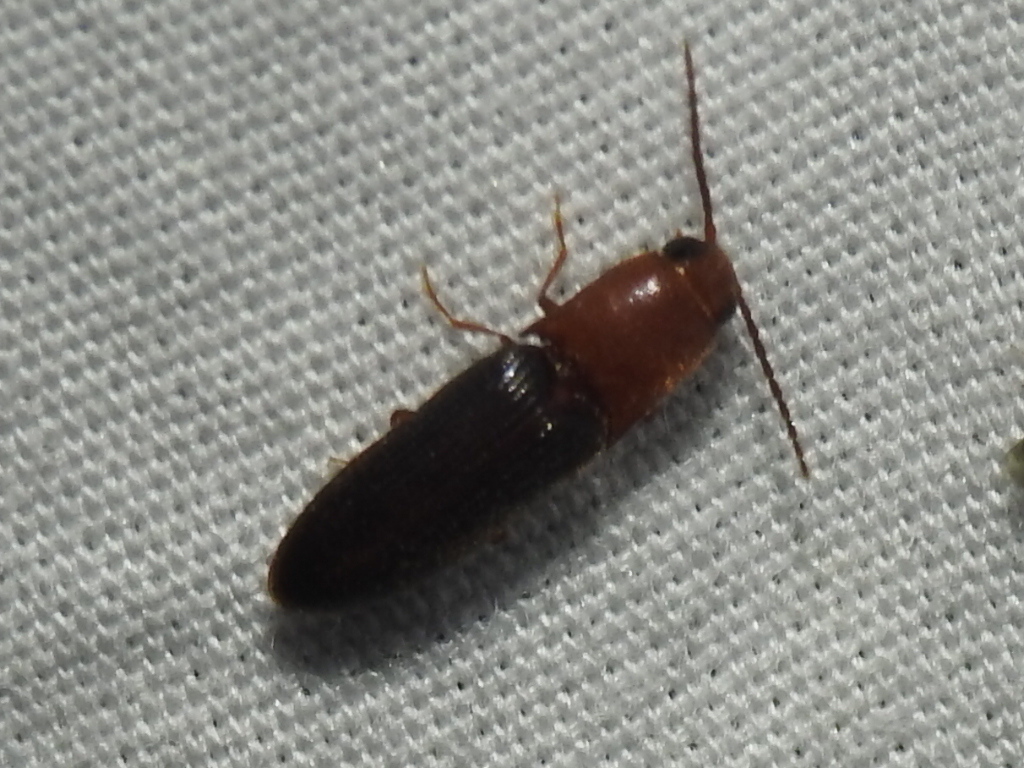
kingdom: Animalia
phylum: Arthropoda
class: Insecta
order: Coleoptera
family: Elateridae
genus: Anchastus
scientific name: Anchastus
